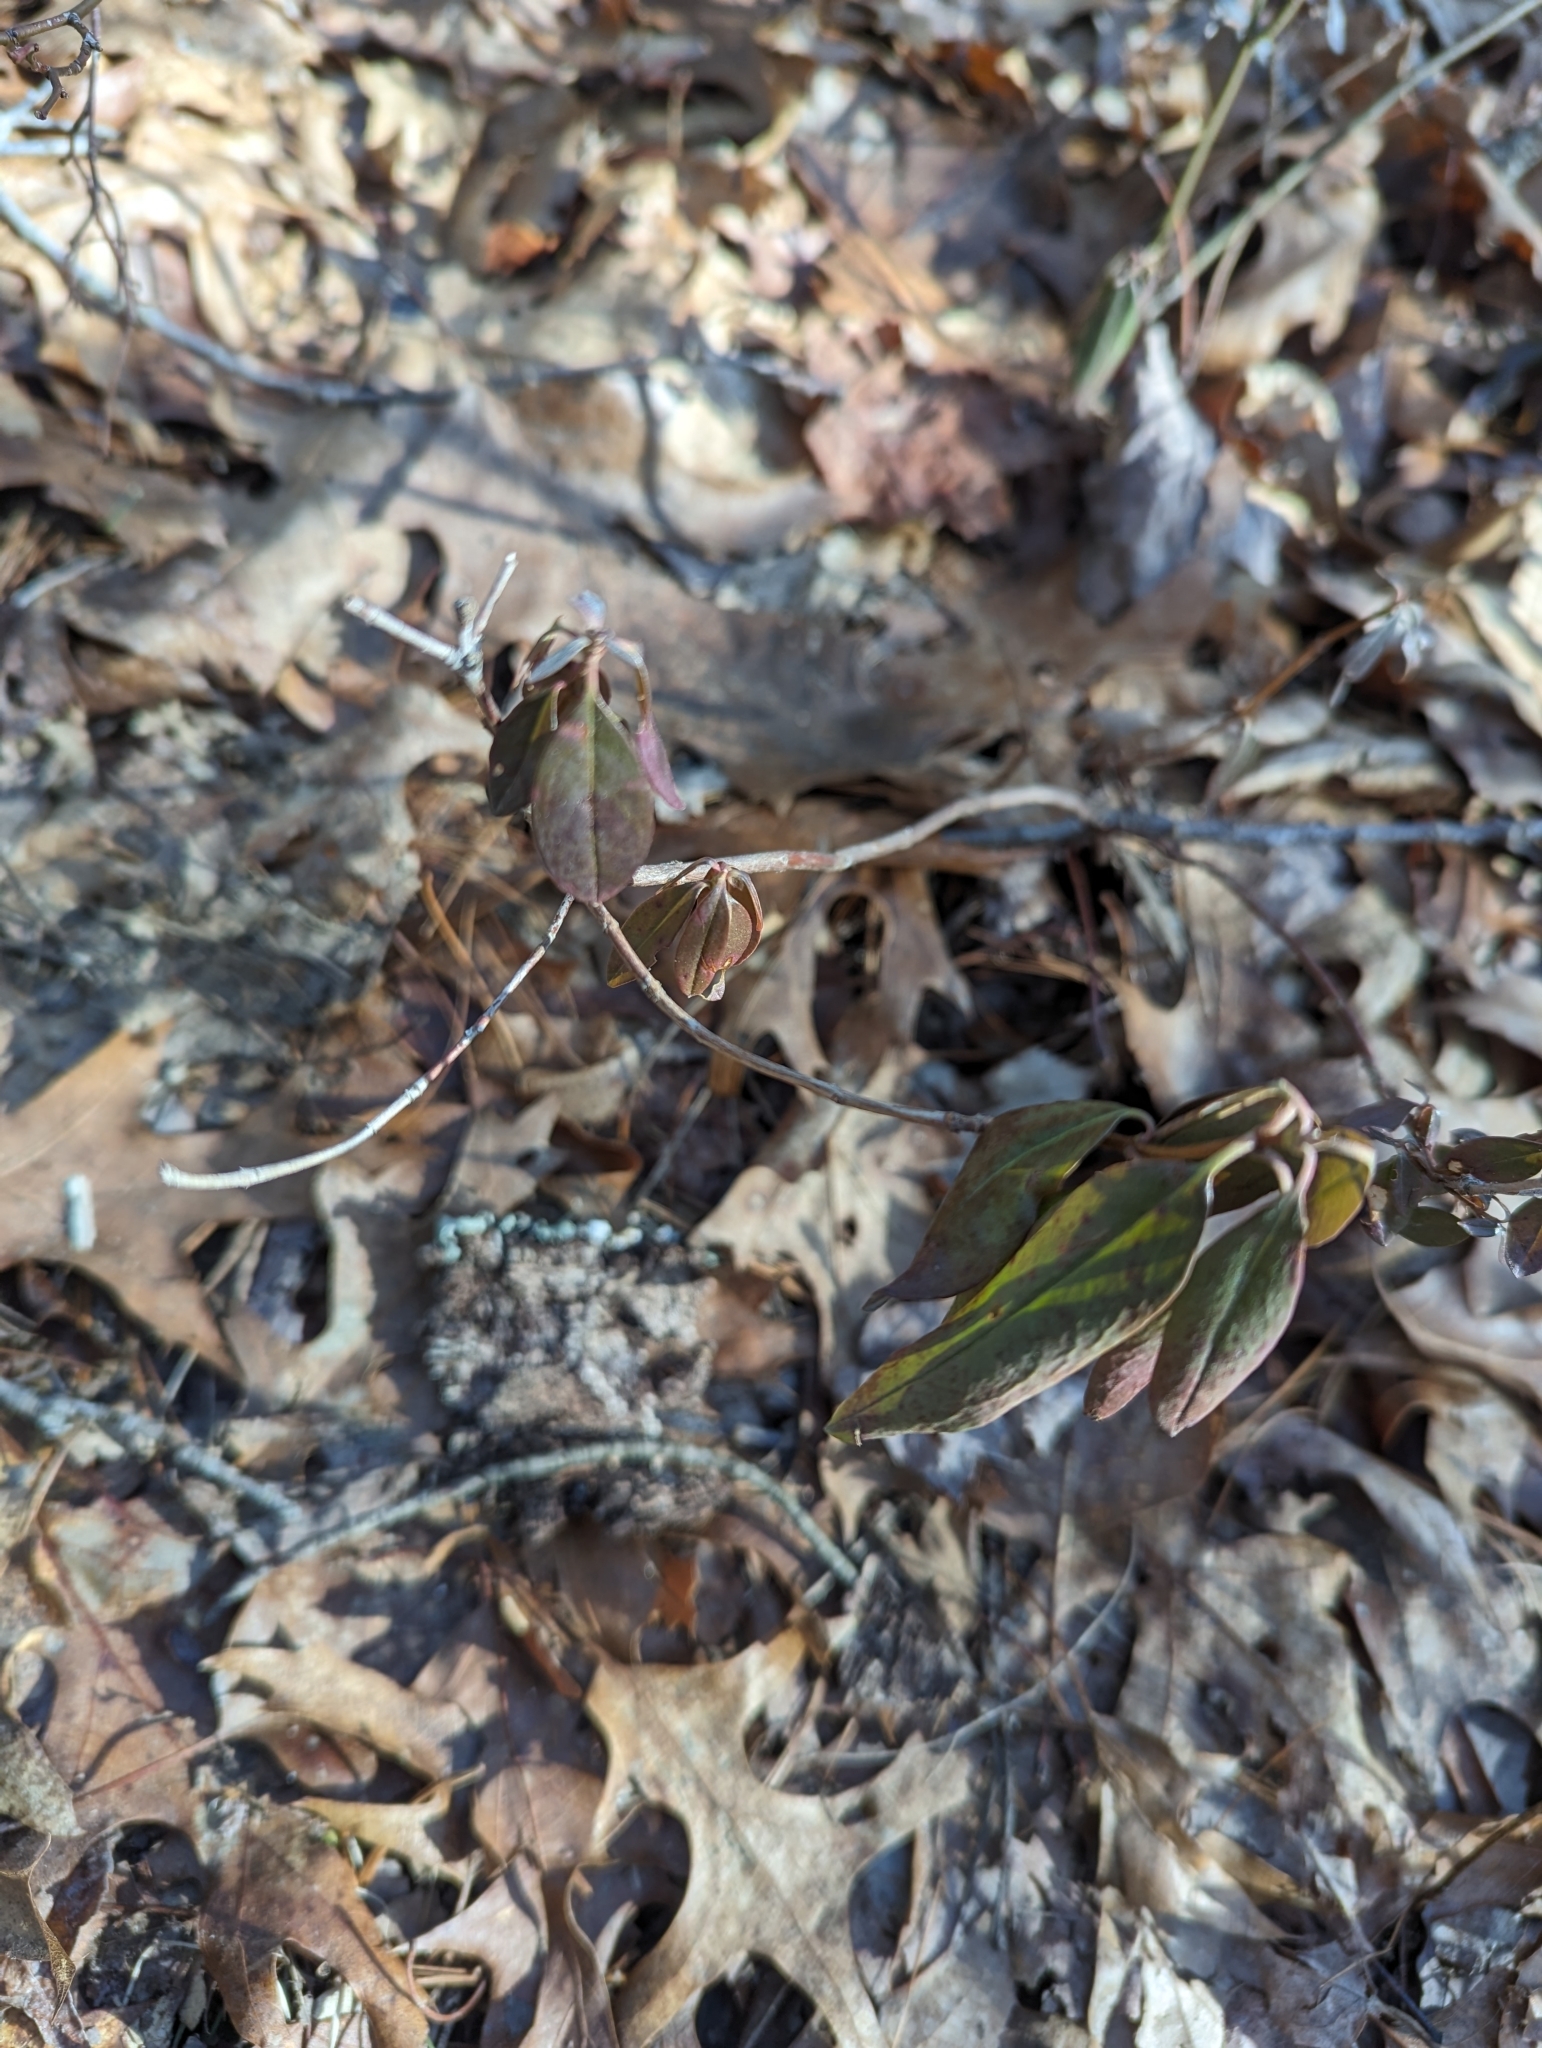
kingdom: Plantae
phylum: Tracheophyta
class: Magnoliopsida
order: Ericales
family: Ericaceae
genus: Kalmia
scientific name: Kalmia angustifolia
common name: Sheep-laurel
